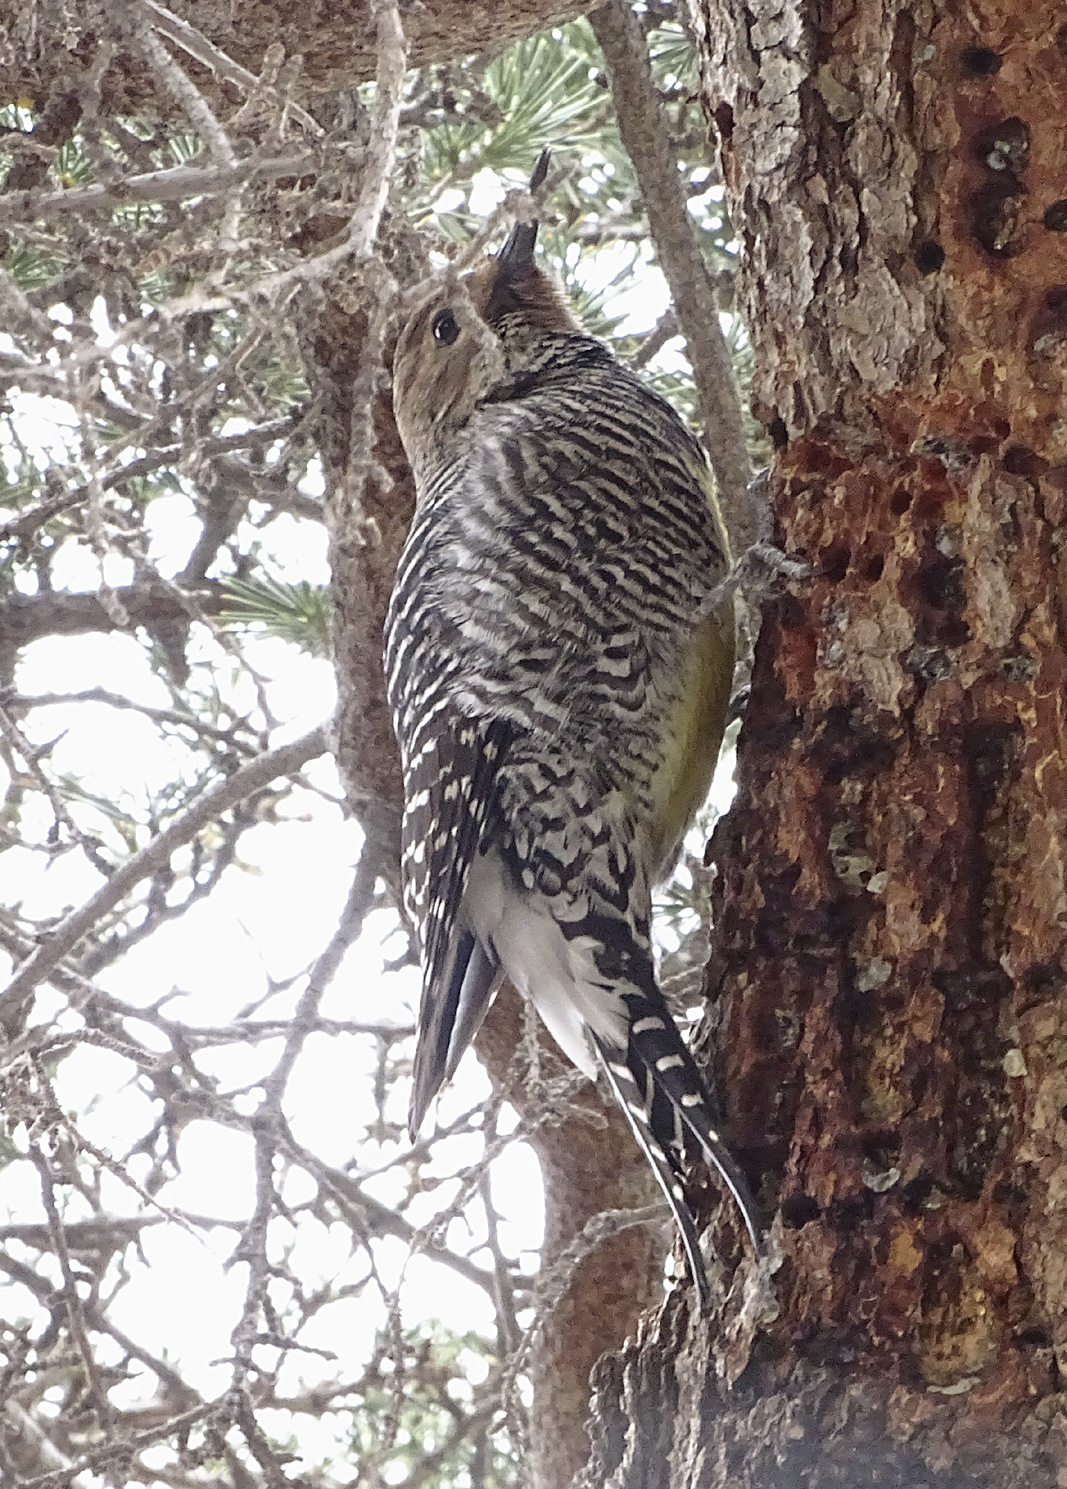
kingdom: Animalia
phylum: Chordata
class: Aves
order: Piciformes
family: Picidae
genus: Sphyrapicus
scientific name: Sphyrapicus thyroideus
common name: Williamson's sapsucker
